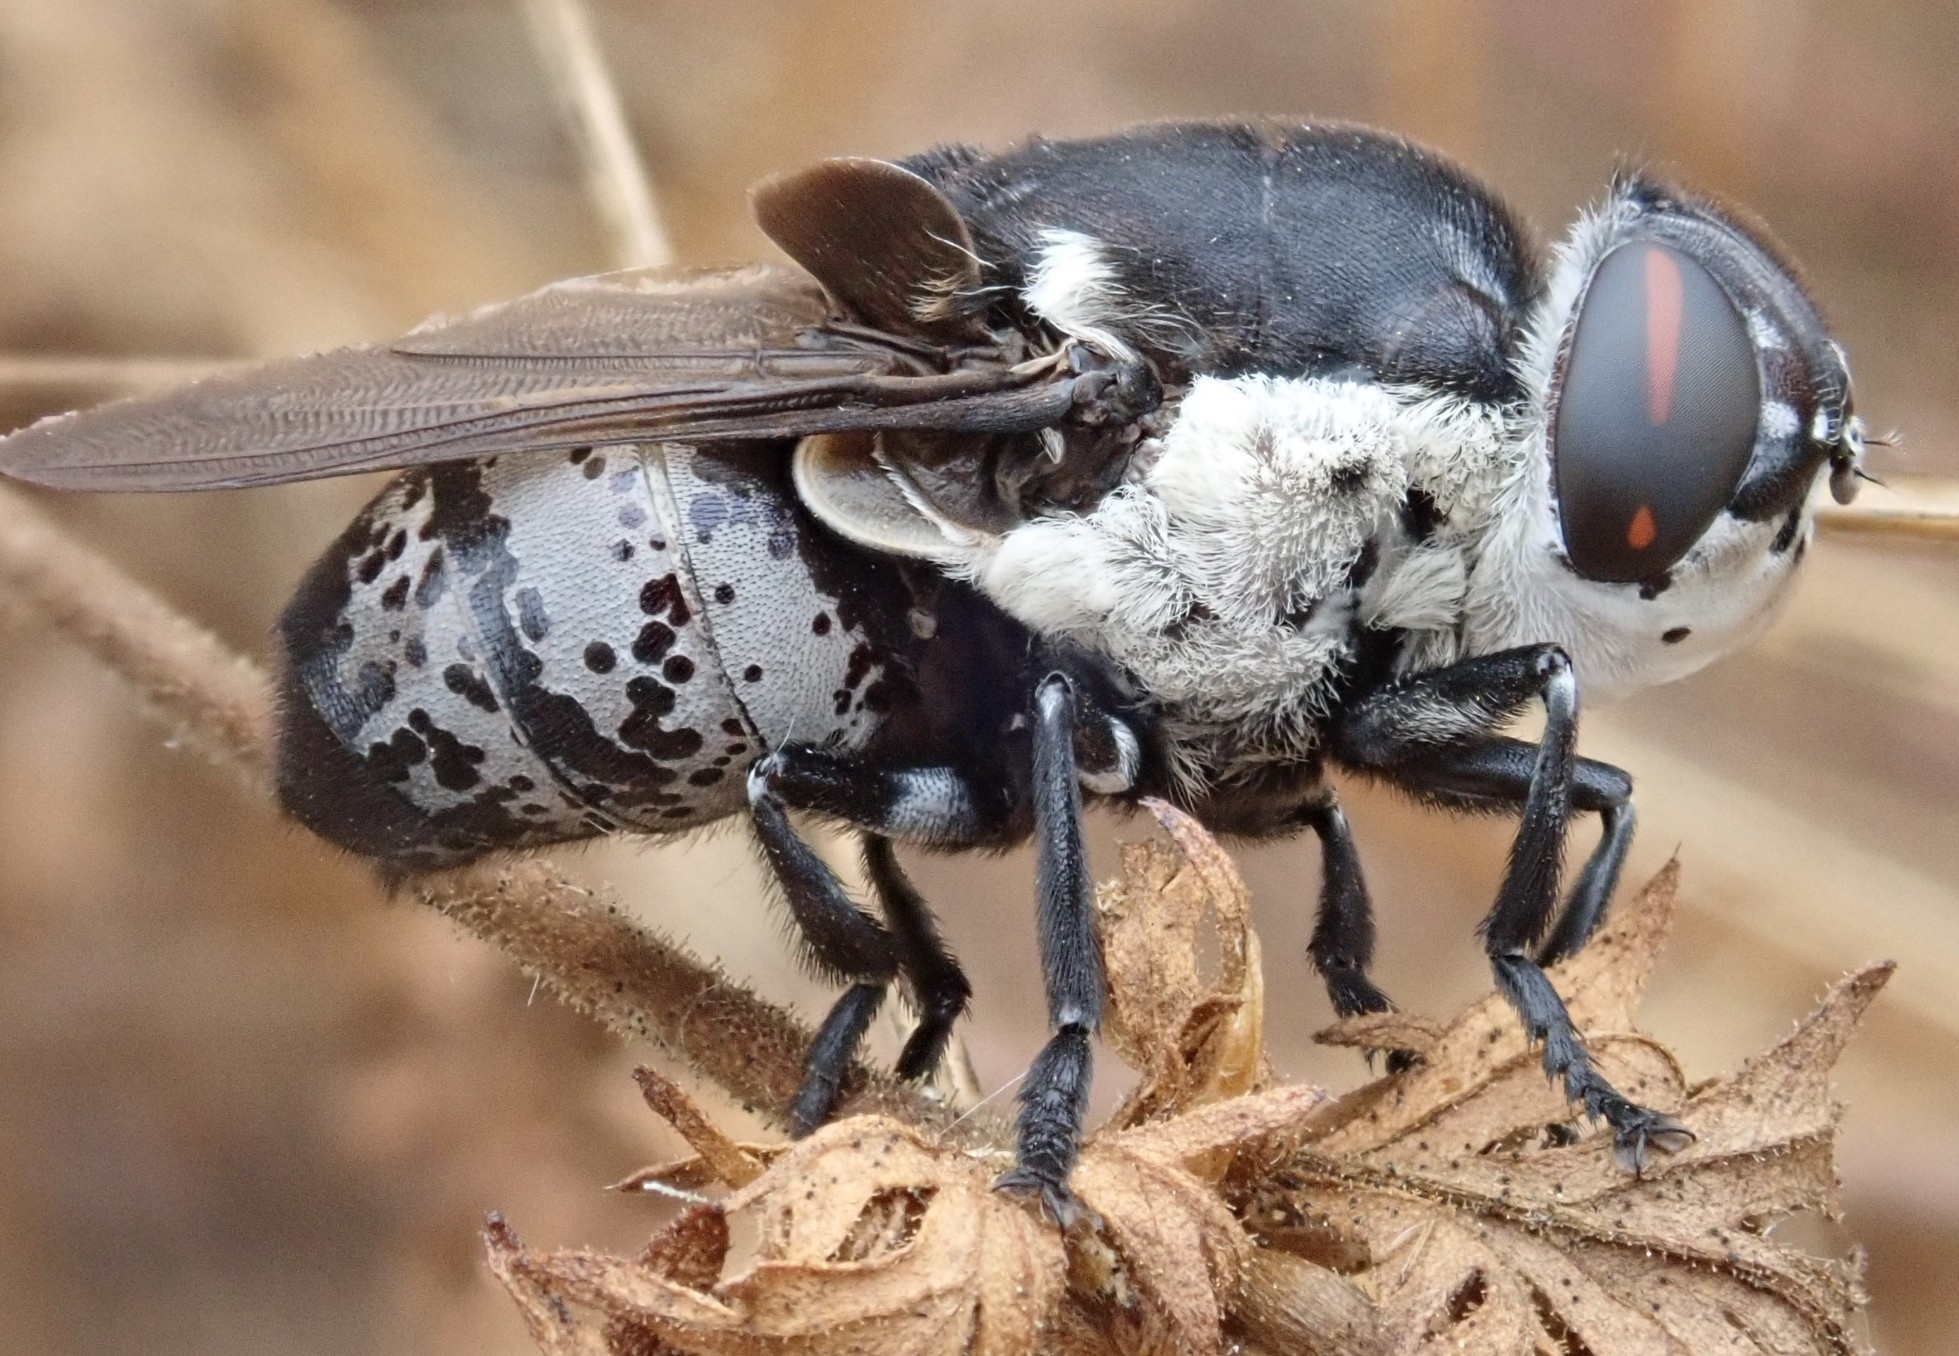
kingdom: Animalia
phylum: Arthropoda
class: Insecta
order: Diptera
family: Oestridae
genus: Cuterebra
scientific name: Cuterebra lepivora
